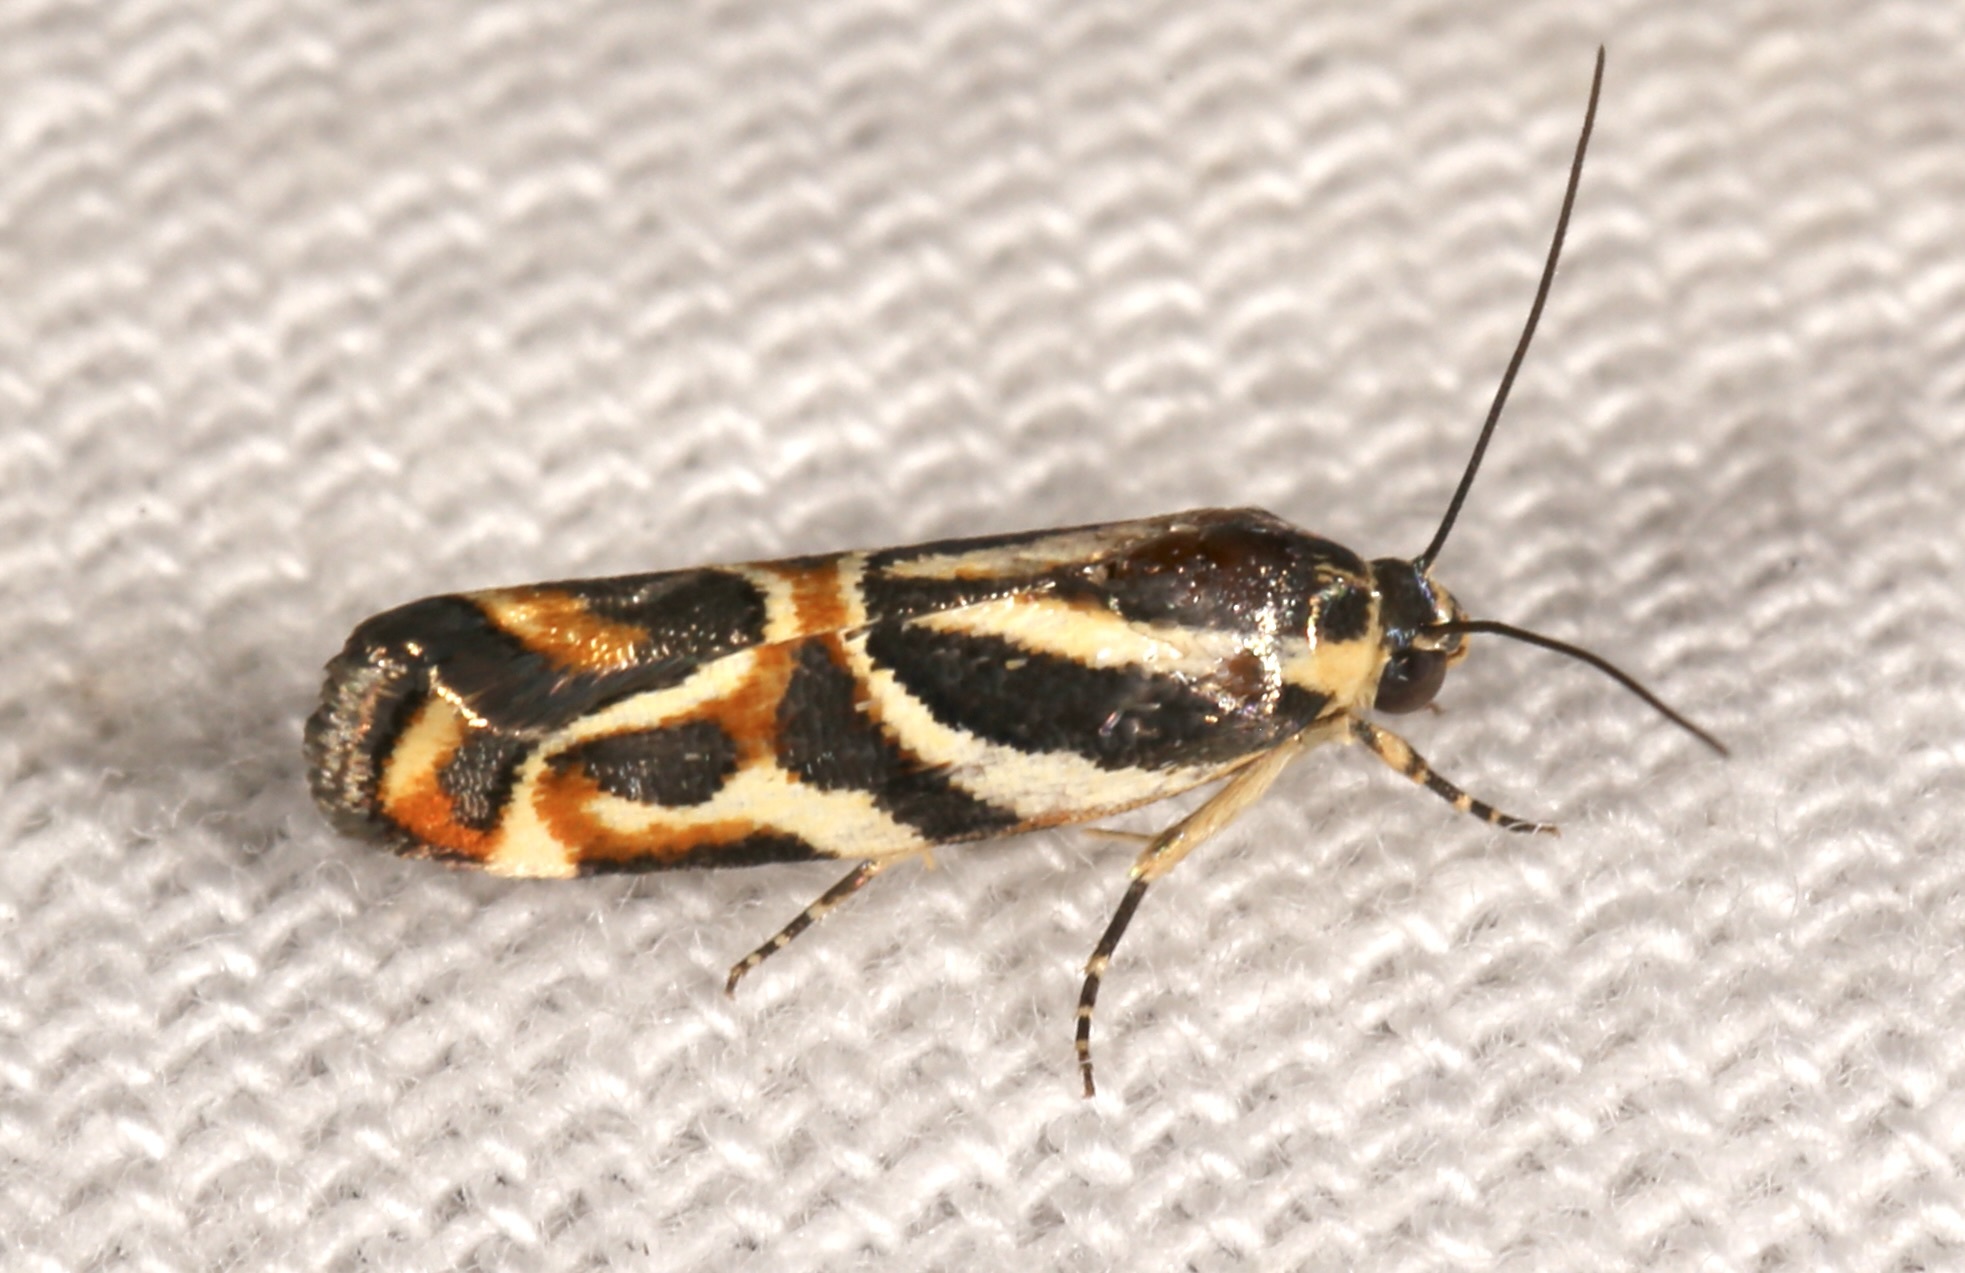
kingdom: Animalia
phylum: Arthropoda
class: Insecta
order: Lepidoptera
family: Noctuidae
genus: Spragueia
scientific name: Spragueia magnifica
